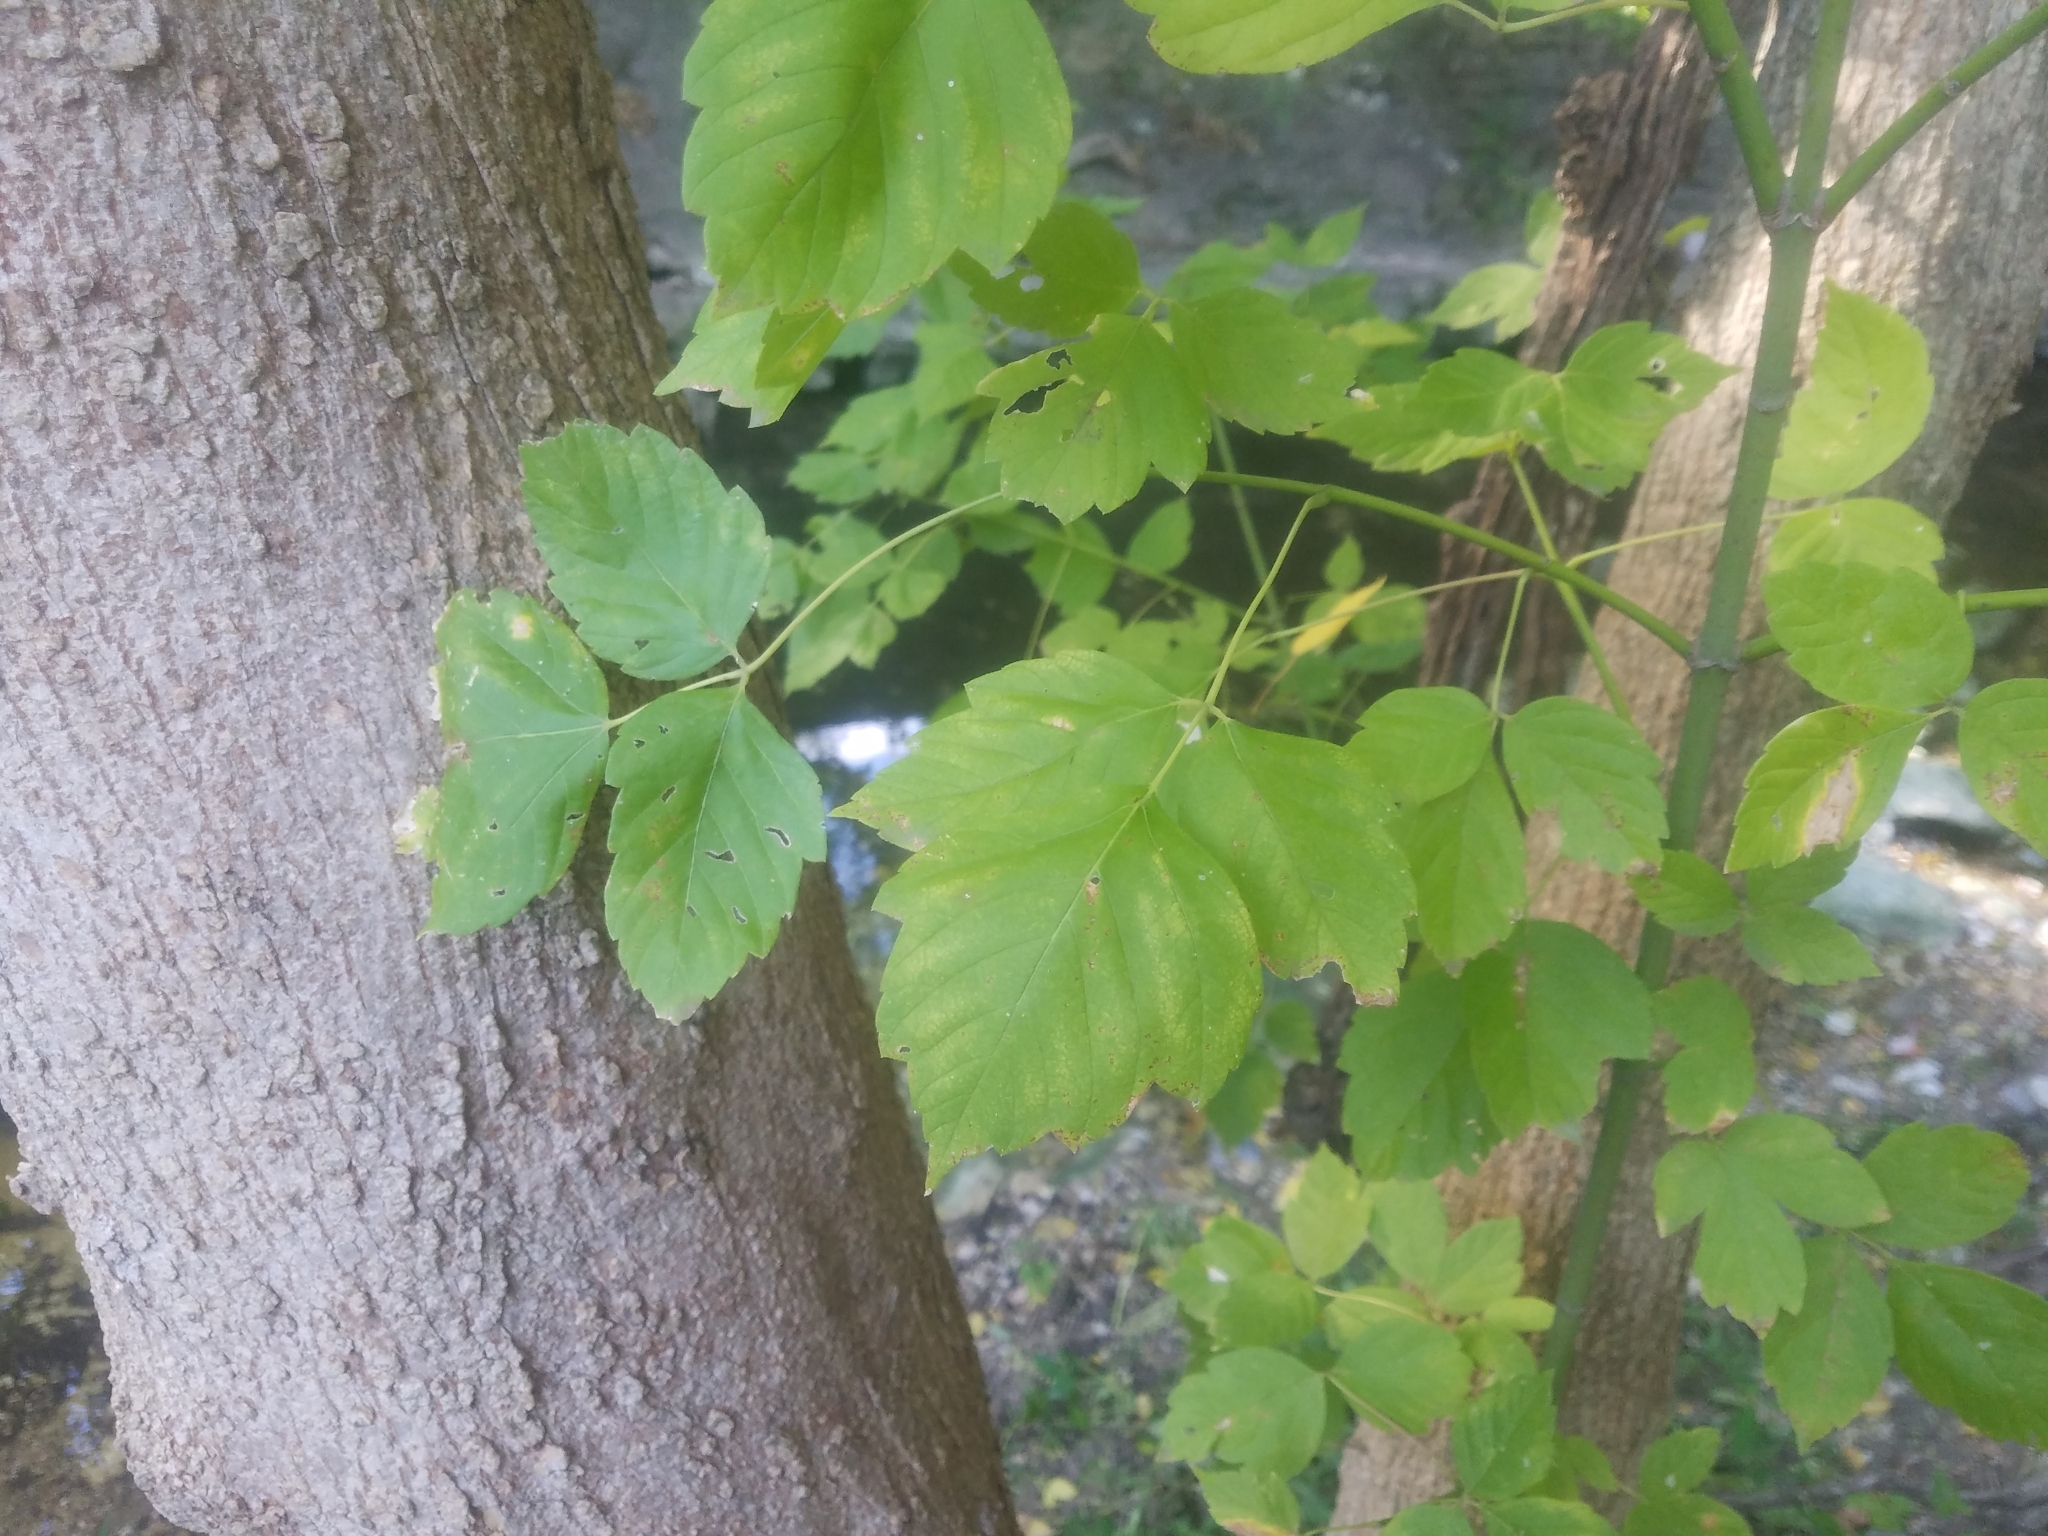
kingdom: Plantae
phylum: Tracheophyta
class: Magnoliopsida
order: Sapindales
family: Sapindaceae
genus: Acer
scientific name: Acer negundo
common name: Ashleaf maple
